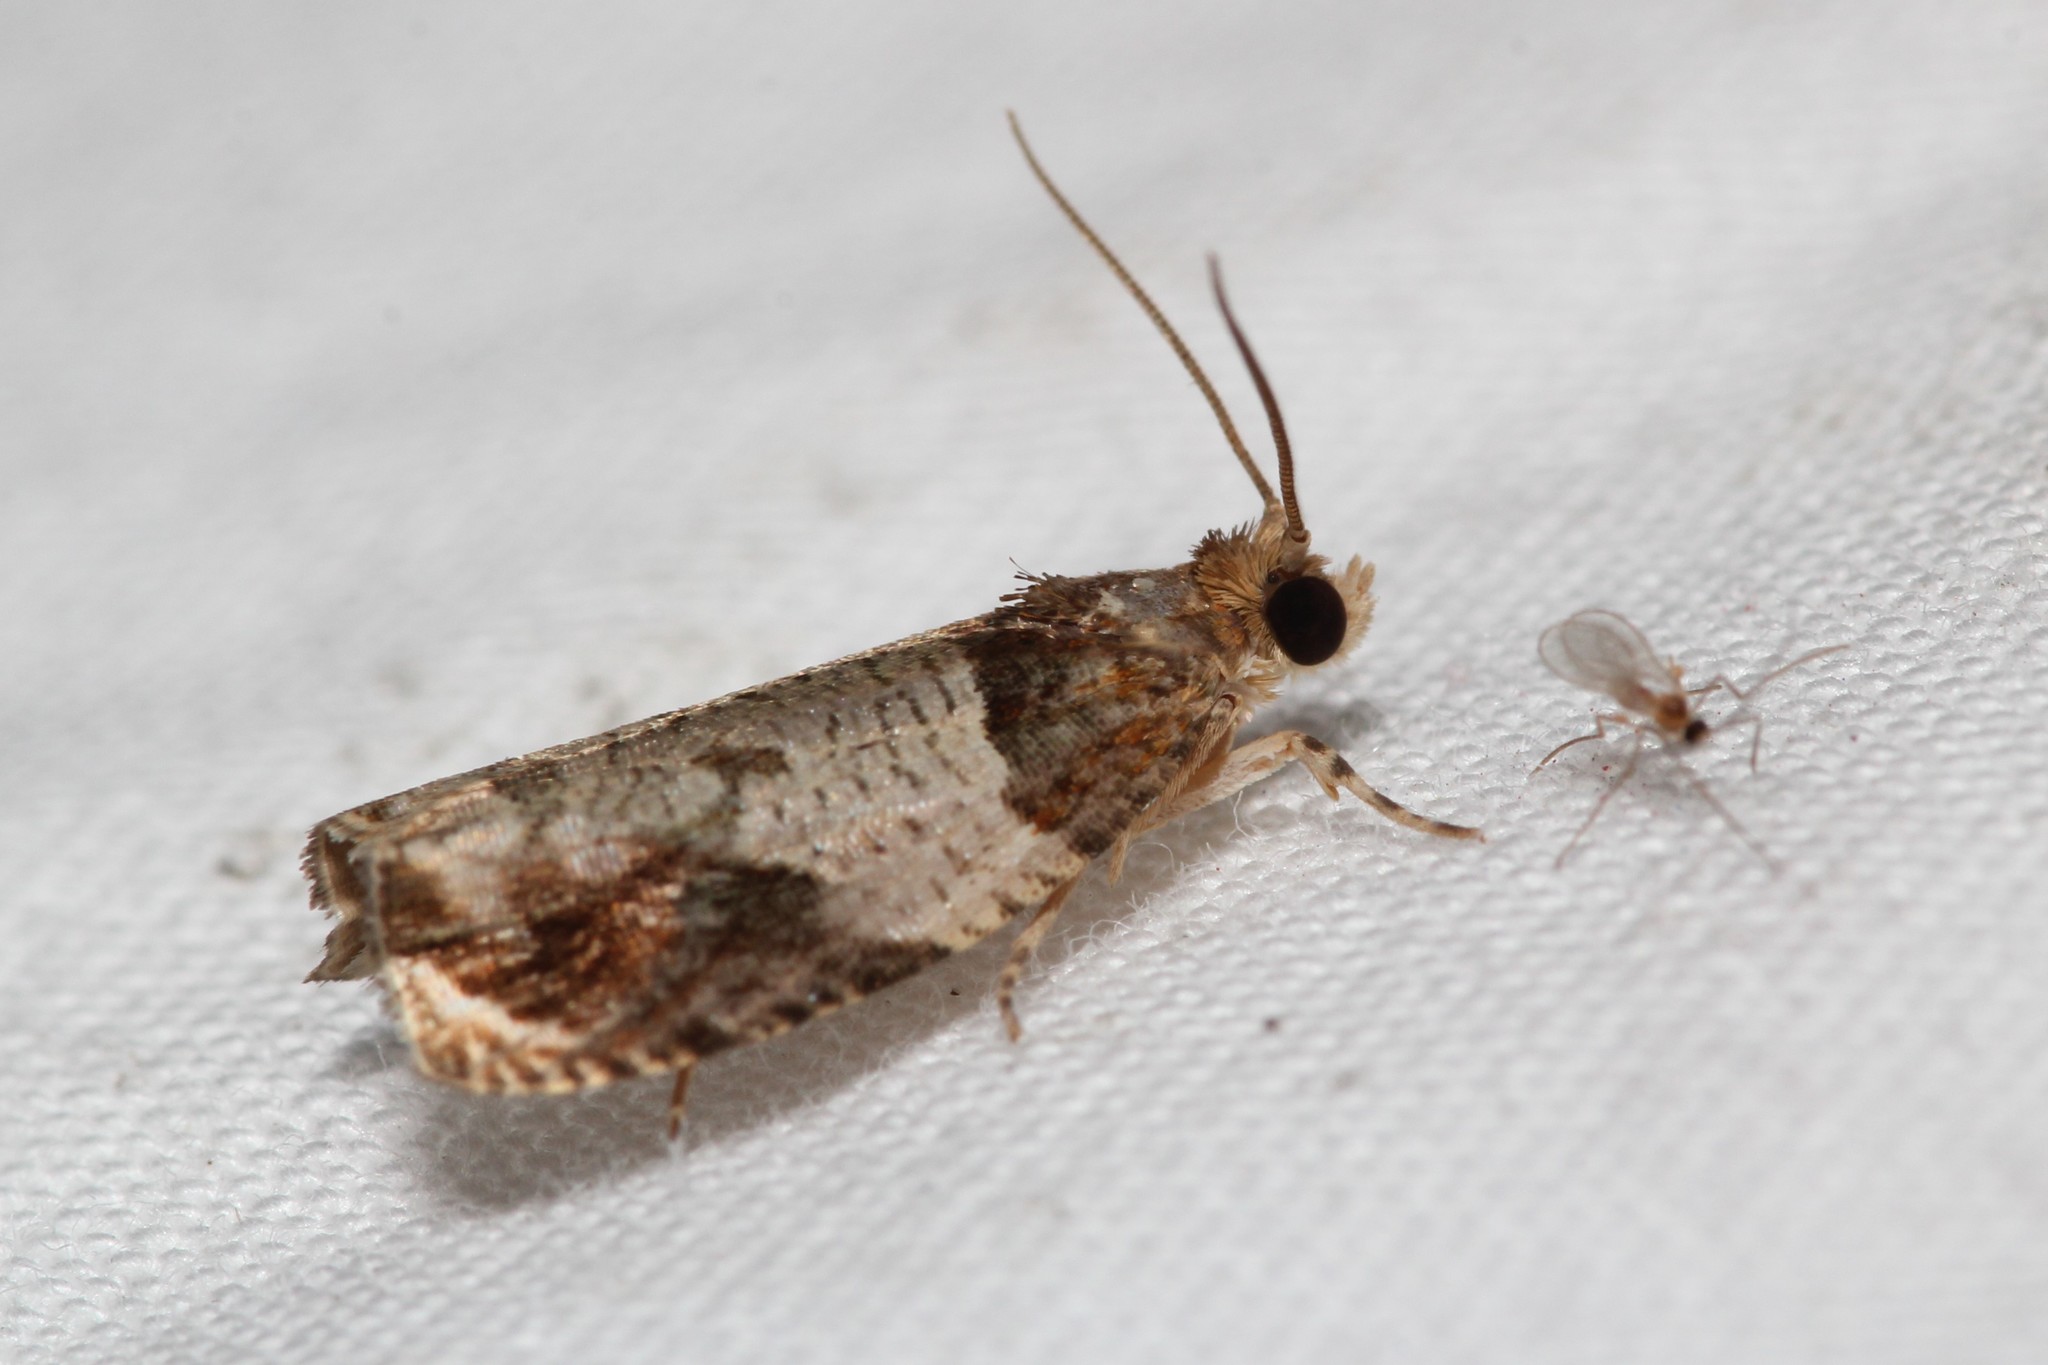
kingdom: Animalia
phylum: Arthropoda
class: Insecta
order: Lepidoptera
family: Tortricidae
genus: Olethreutes
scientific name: Olethreutes ferriferana
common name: Hydrangea leaftier moth
